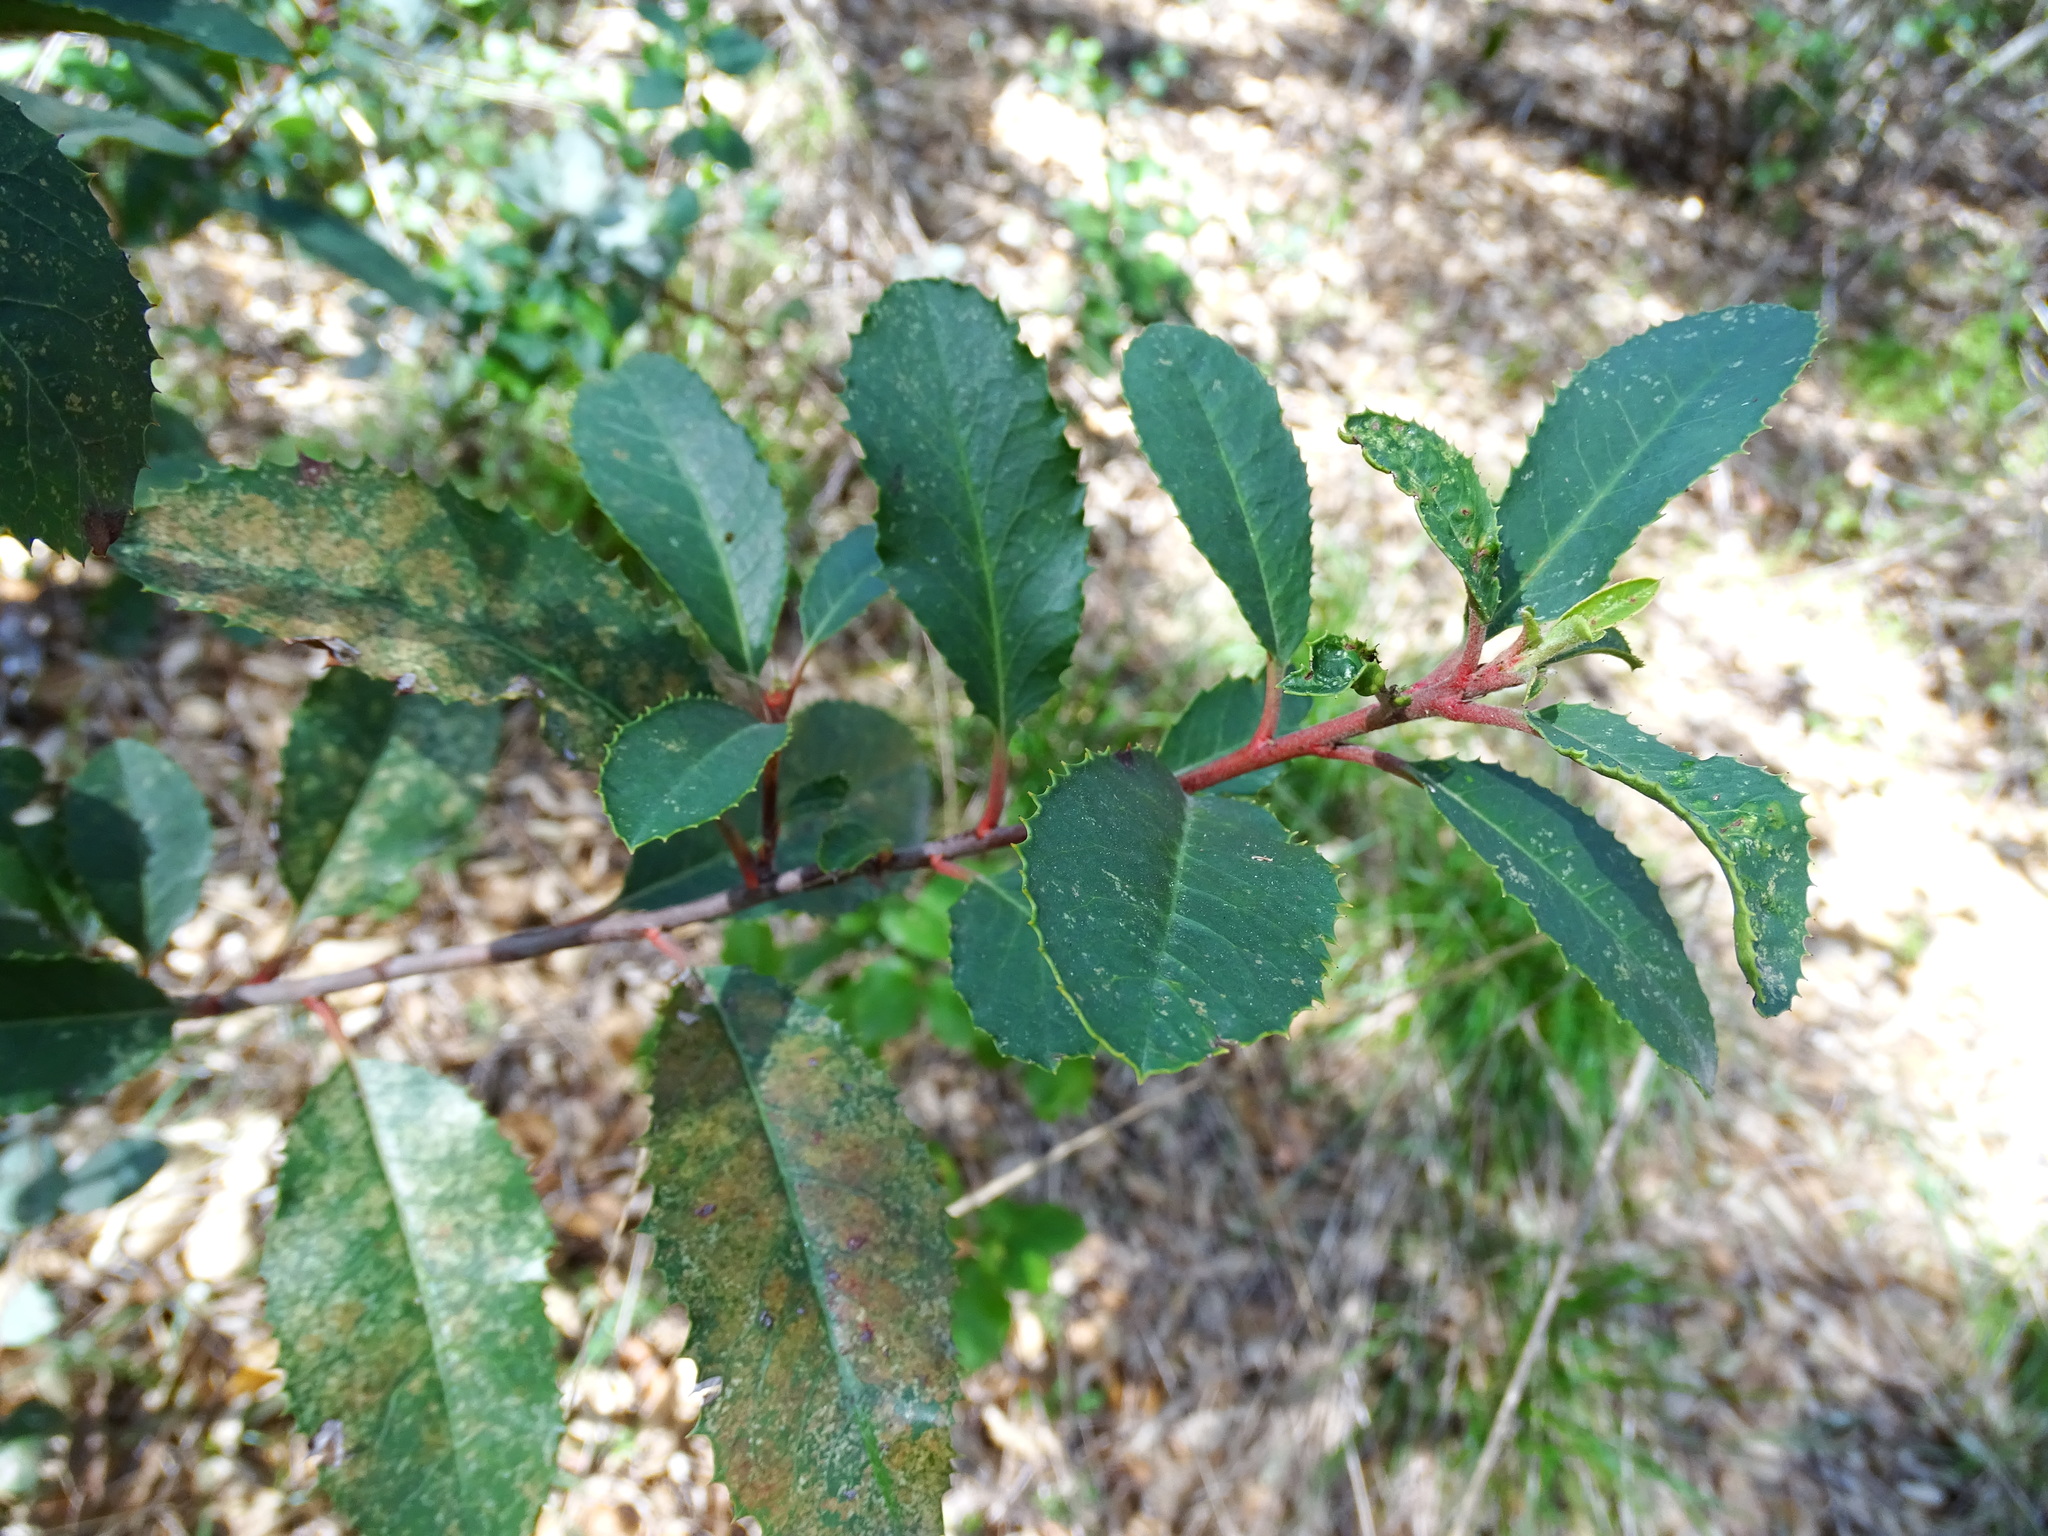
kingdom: Plantae
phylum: Tracheophyta
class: Magnoliopsida
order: Rosales
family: Rosaceae
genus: Heteromeles
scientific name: Heteromeles arbutifolia
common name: California-holly
